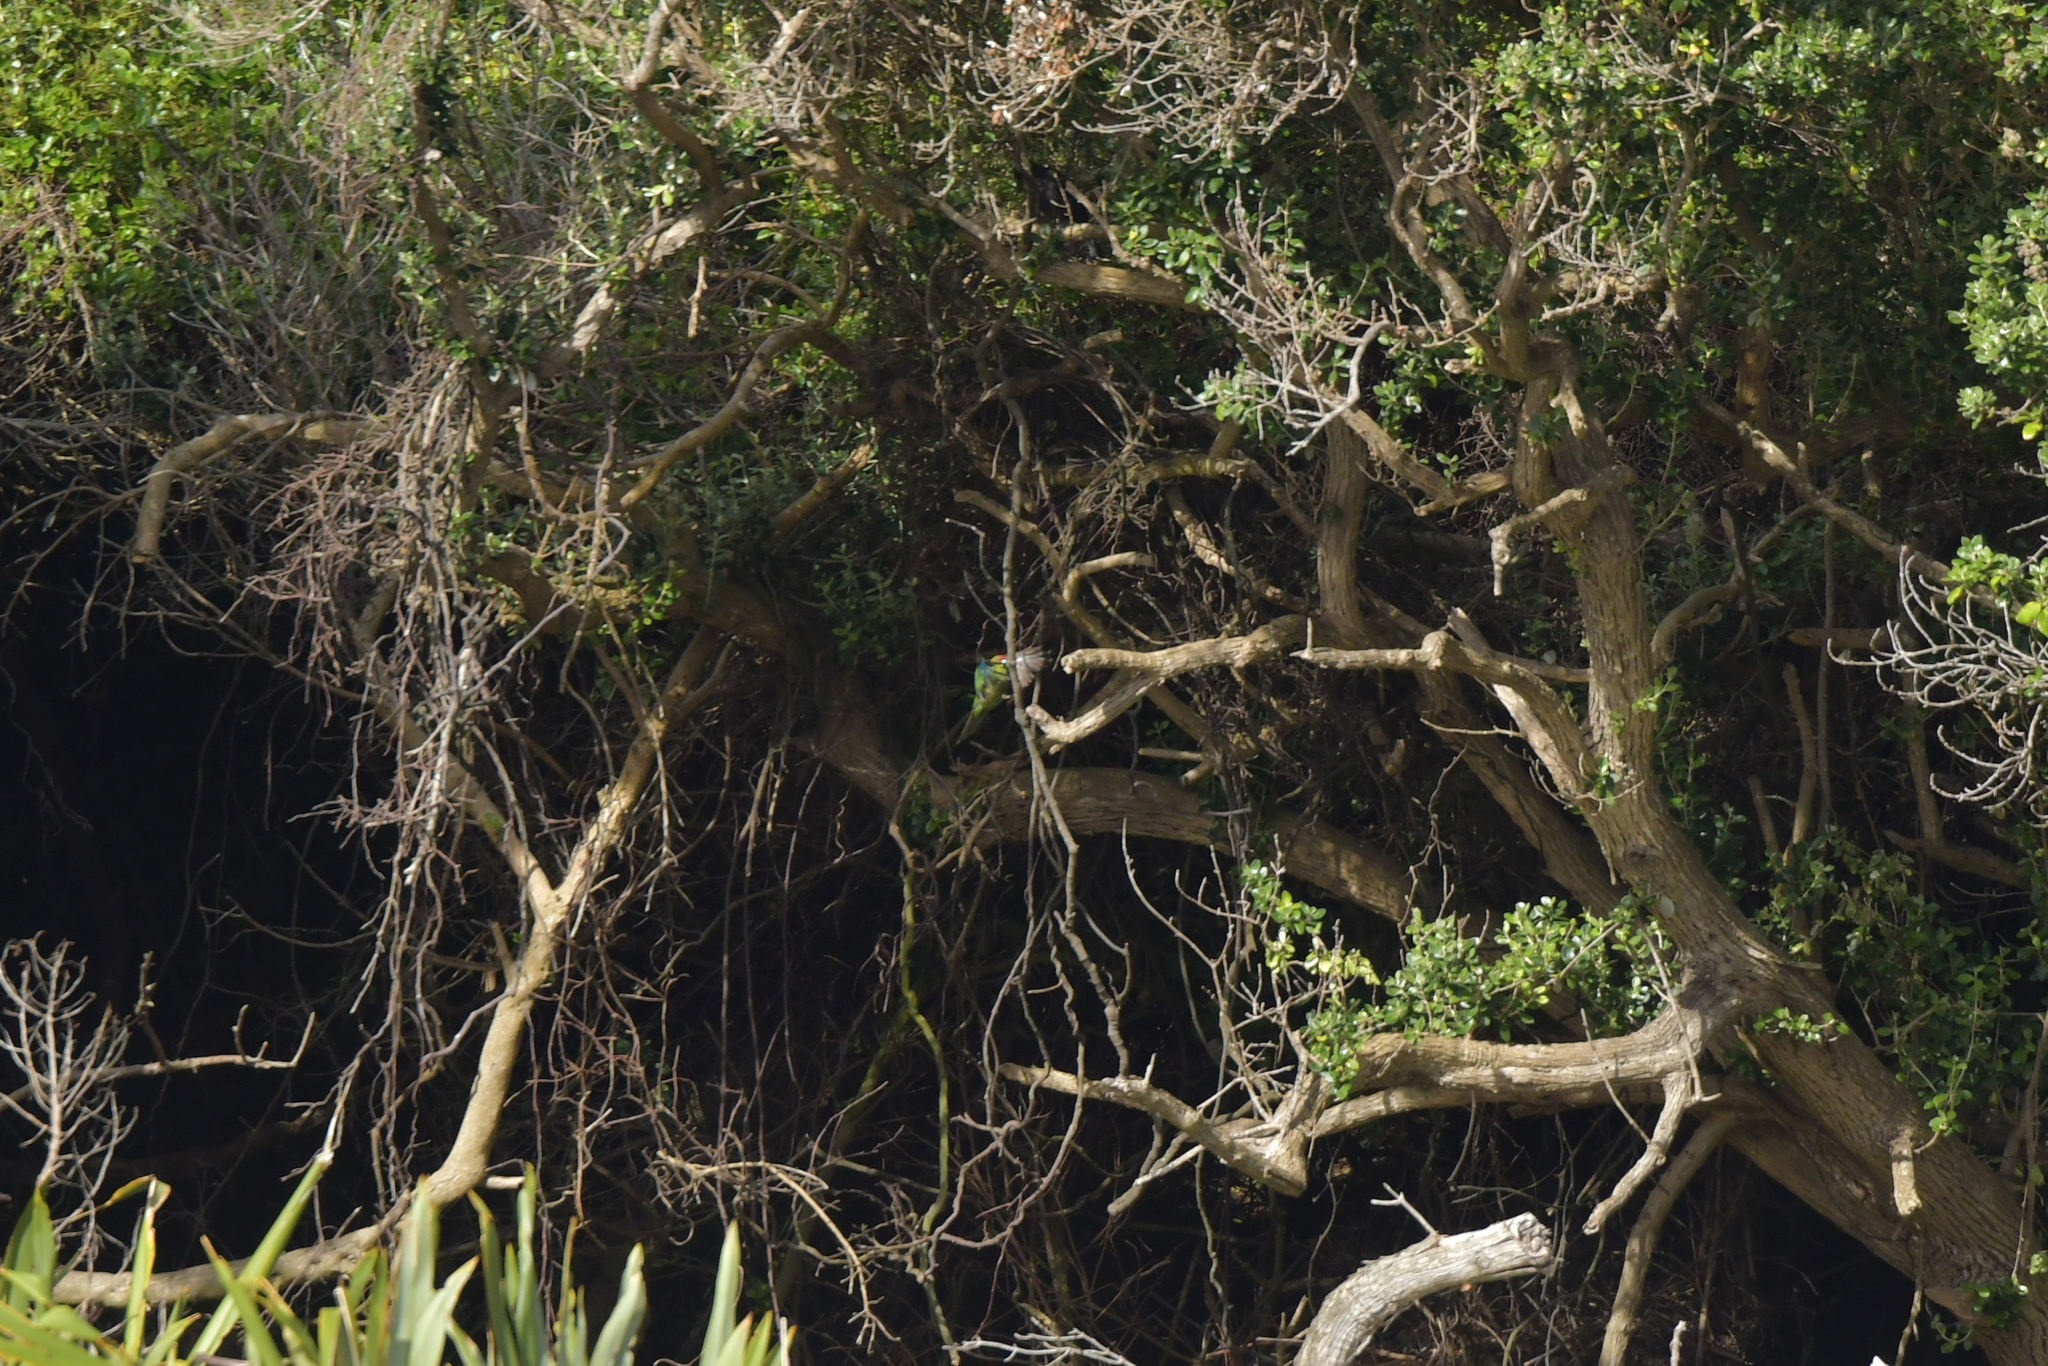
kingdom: Animalia
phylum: Chordata
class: Aves
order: Psittaciformes
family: Psittacidae
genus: Cyanoramphus
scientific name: Cyanoramphus novaezelandiae
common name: Red-fronted parakeet
